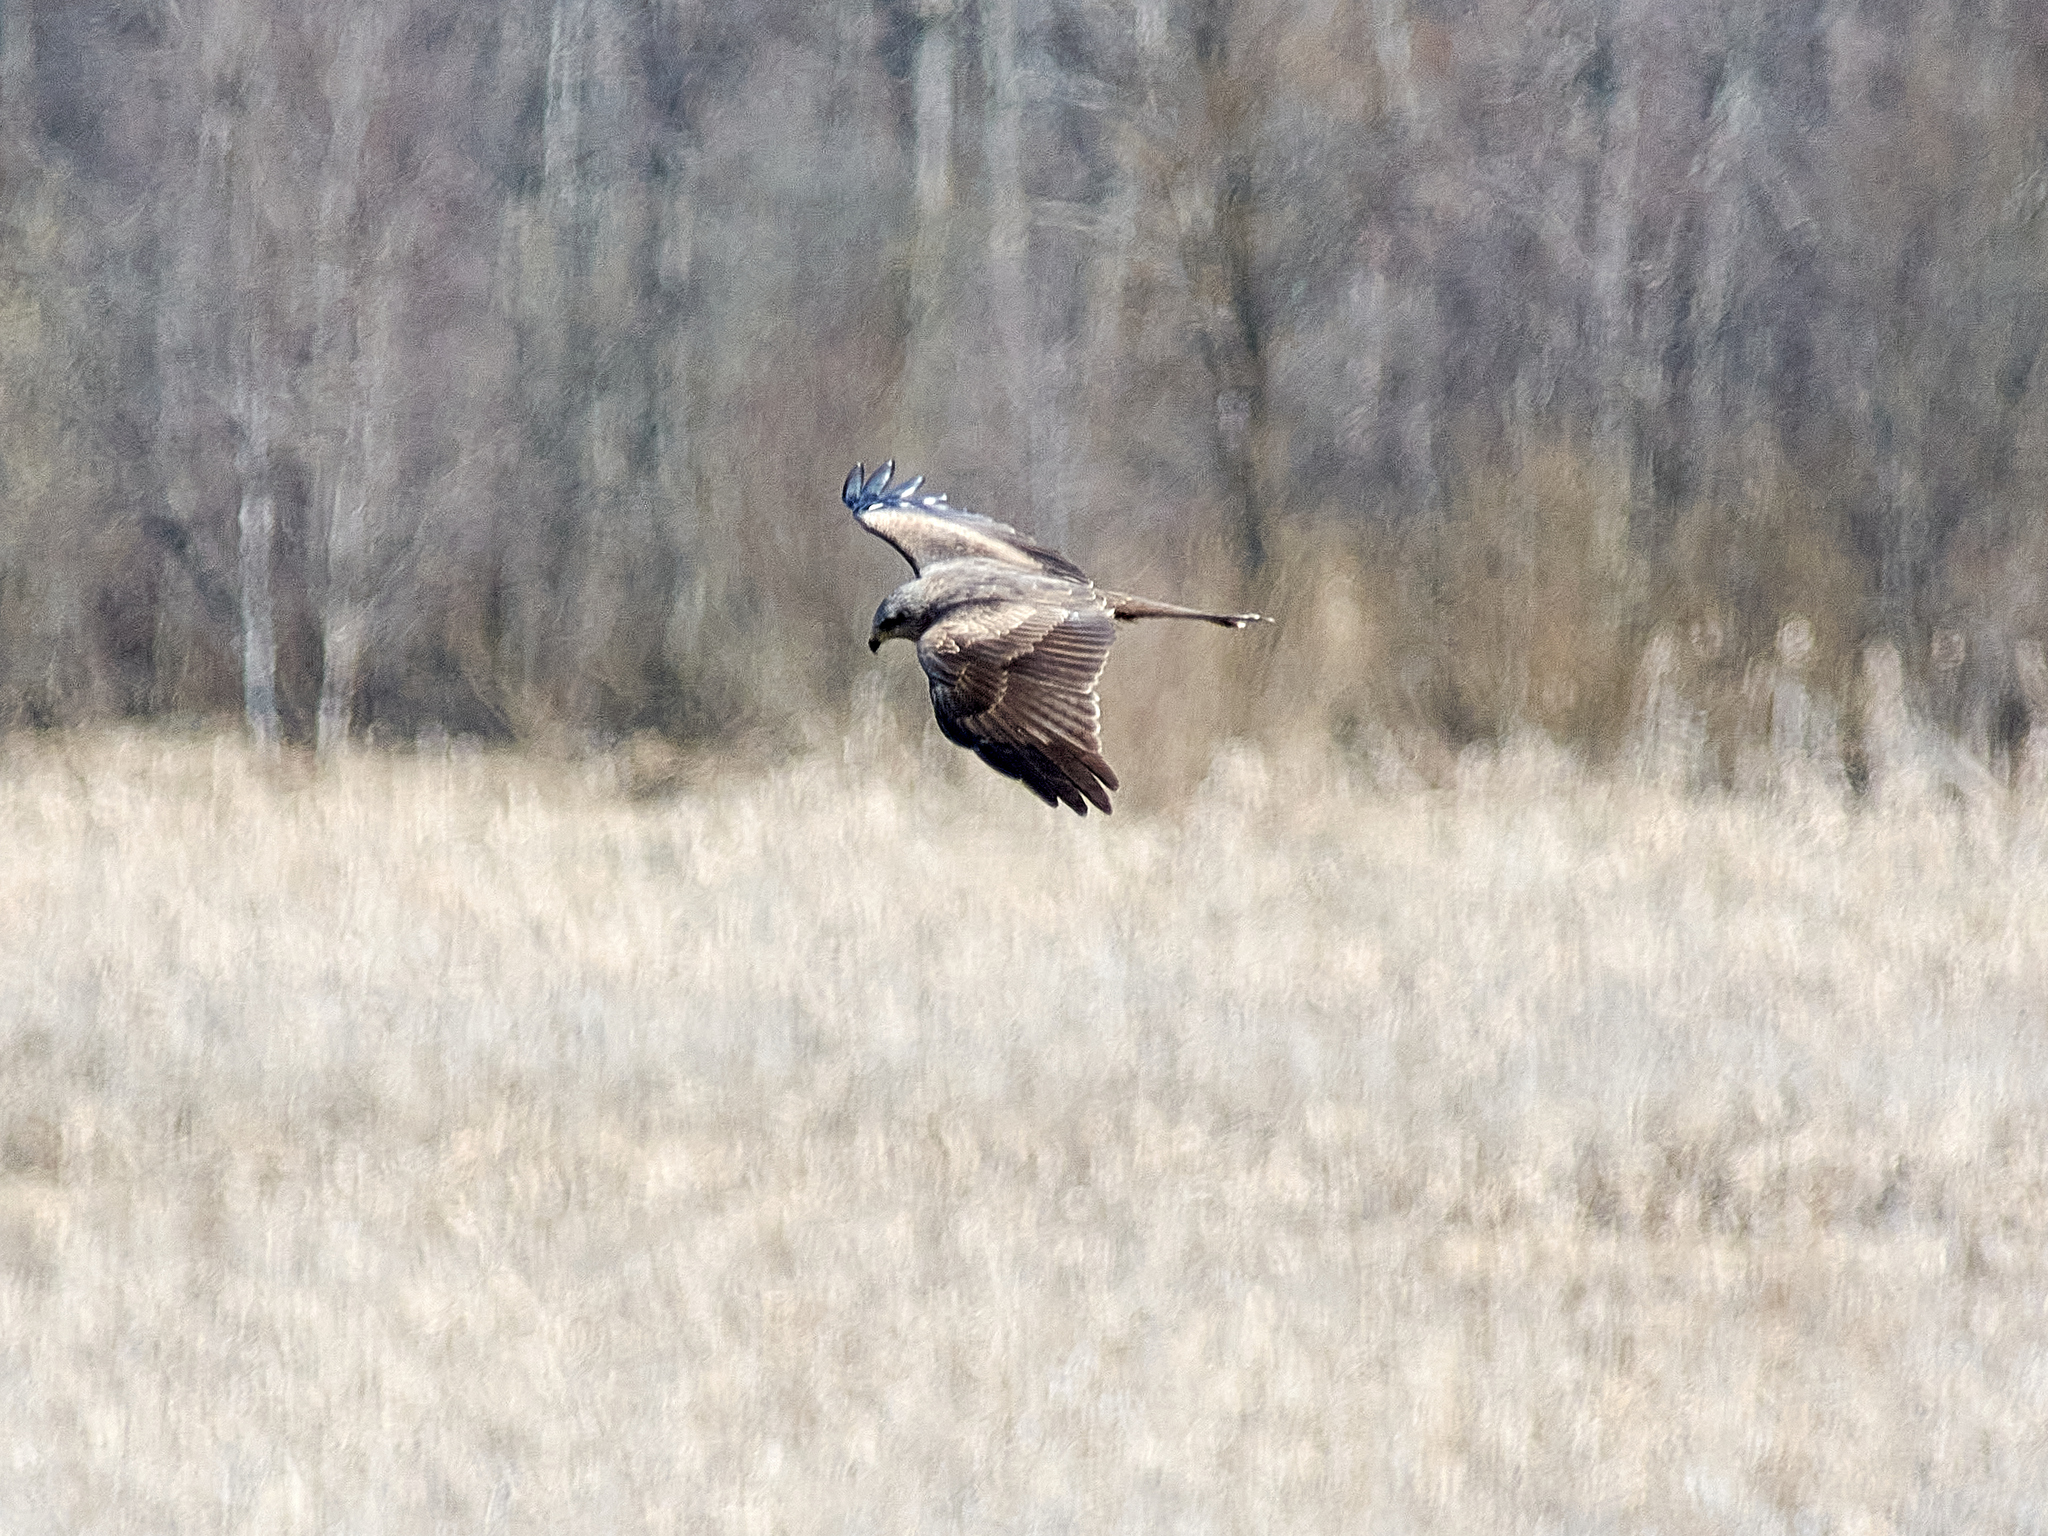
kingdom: Animalia
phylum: Chordata
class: Aves
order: Accipitriformes
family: Accipitridae
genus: Circus
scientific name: Circus aeruginosus
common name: Western marsh harrier
